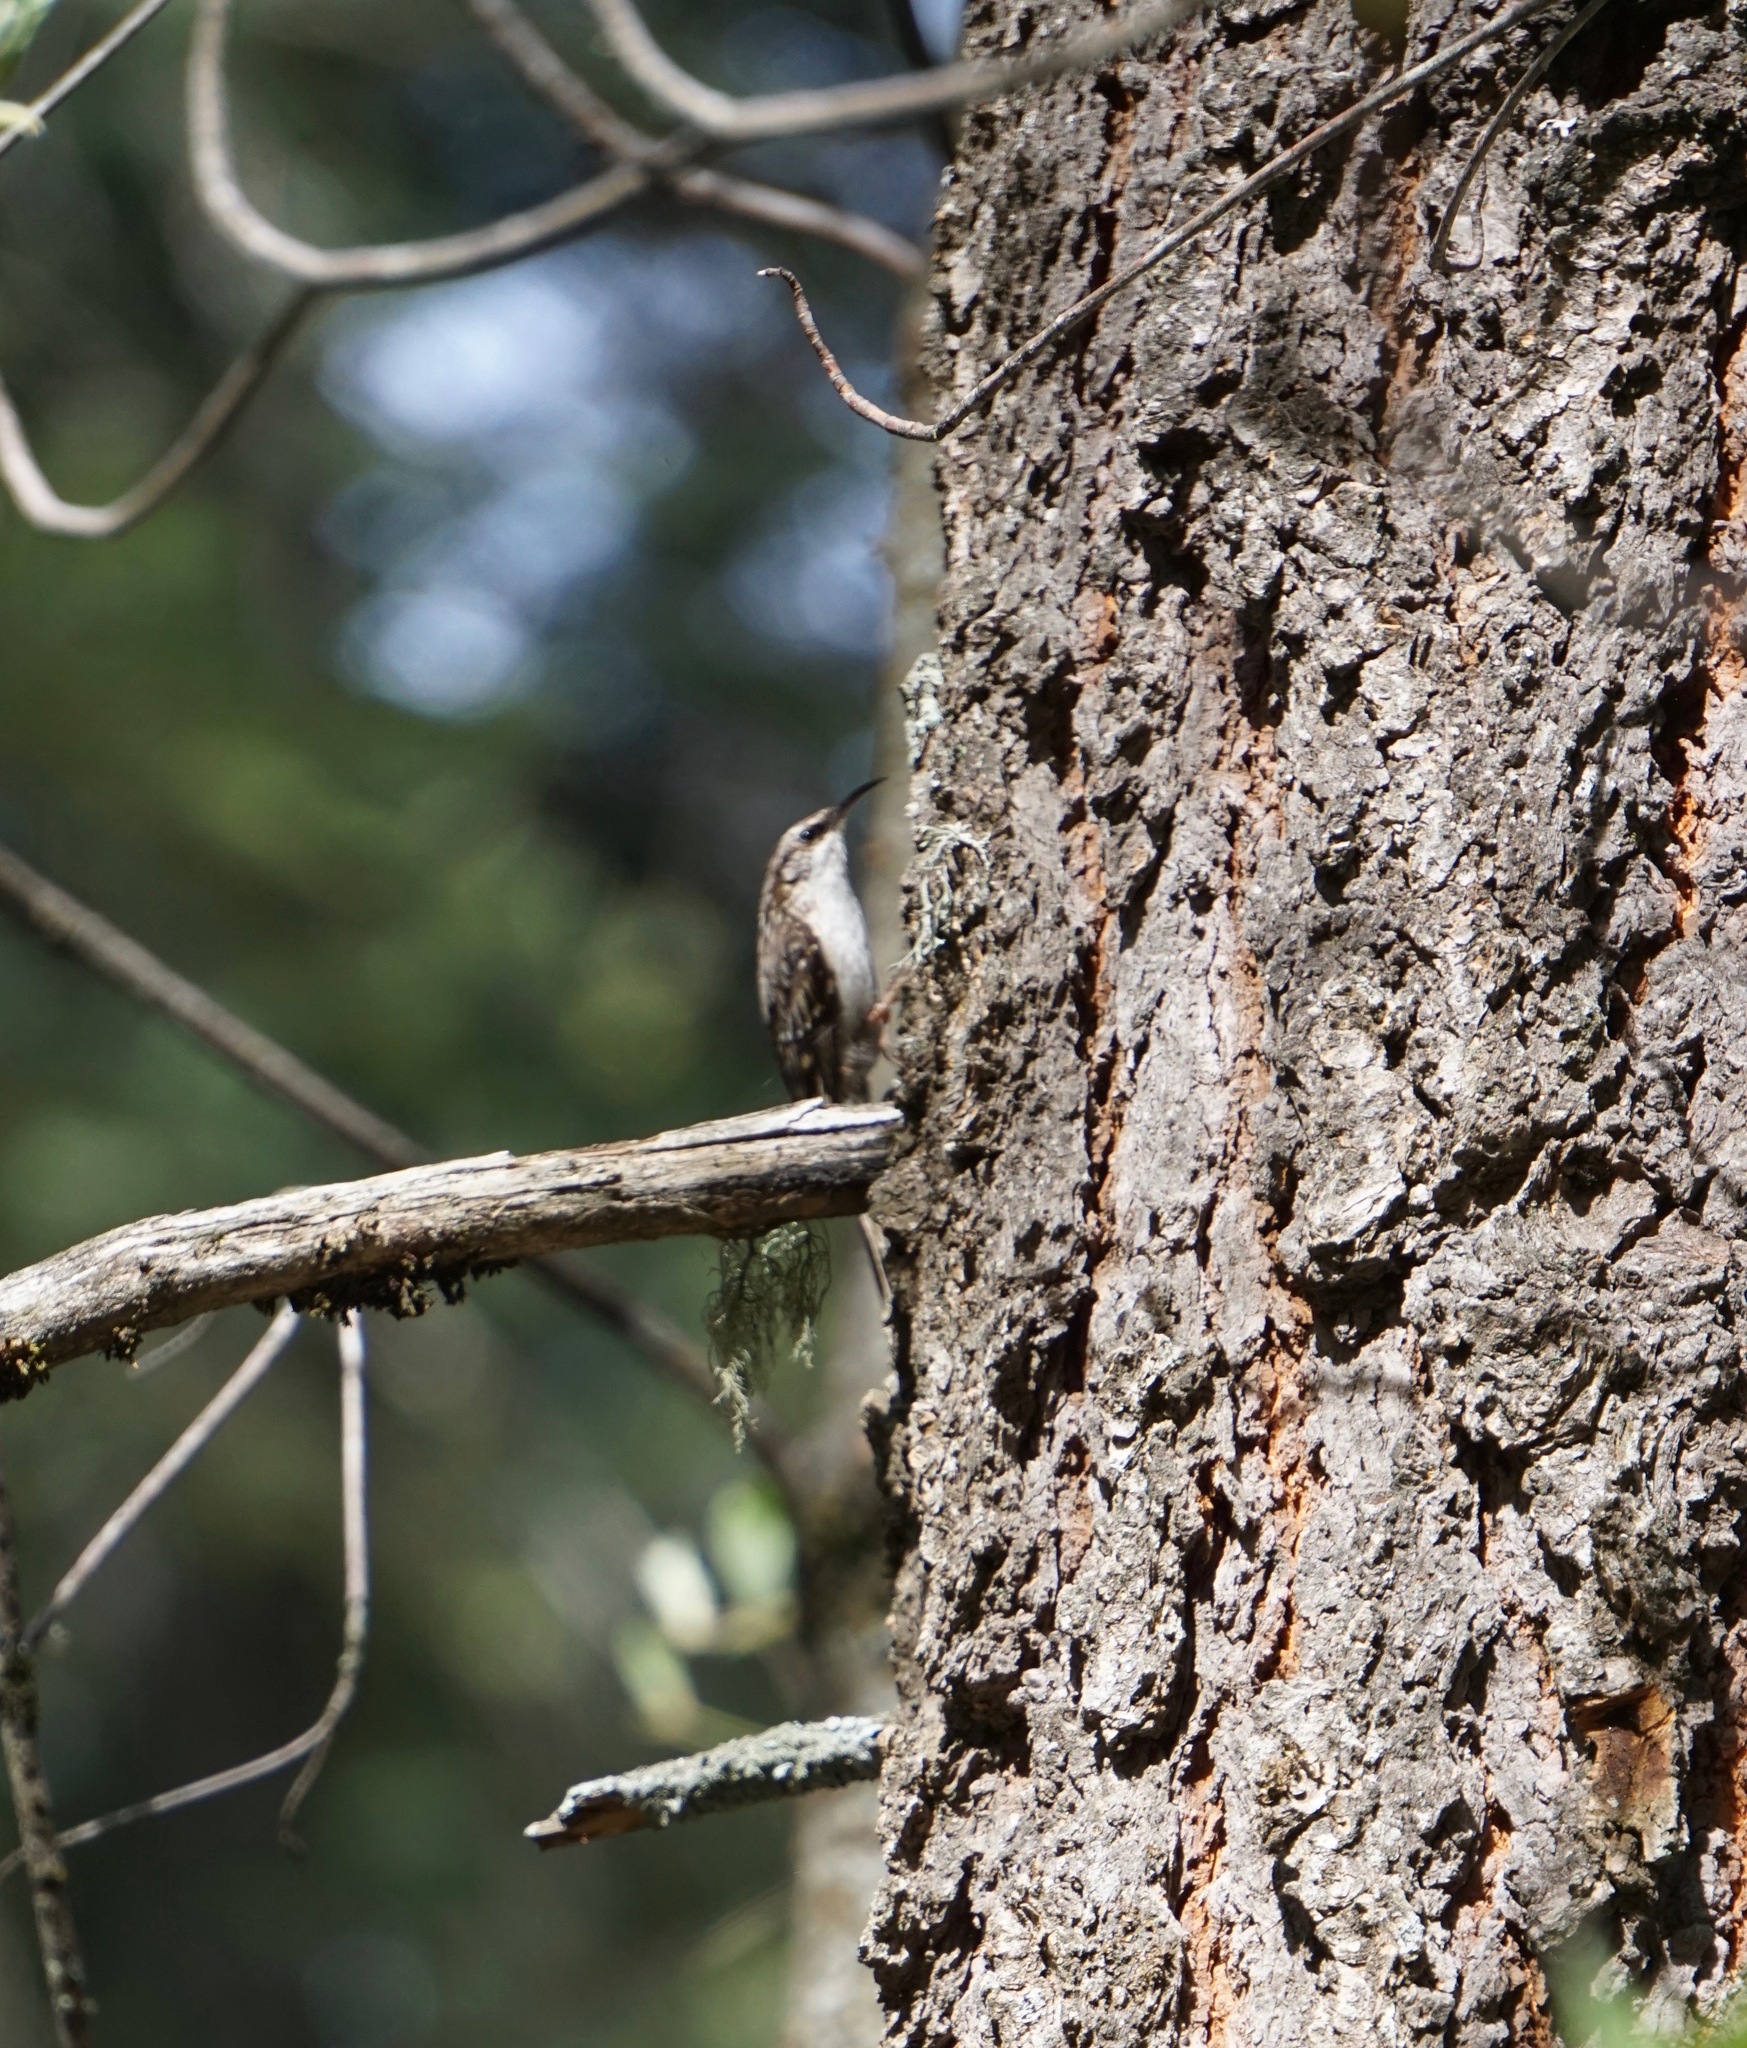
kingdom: Animalia
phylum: Chordata
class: Aves
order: Passeriformes
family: Certhiidae
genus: Certhia
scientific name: Certhia americana
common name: Brown creeper
